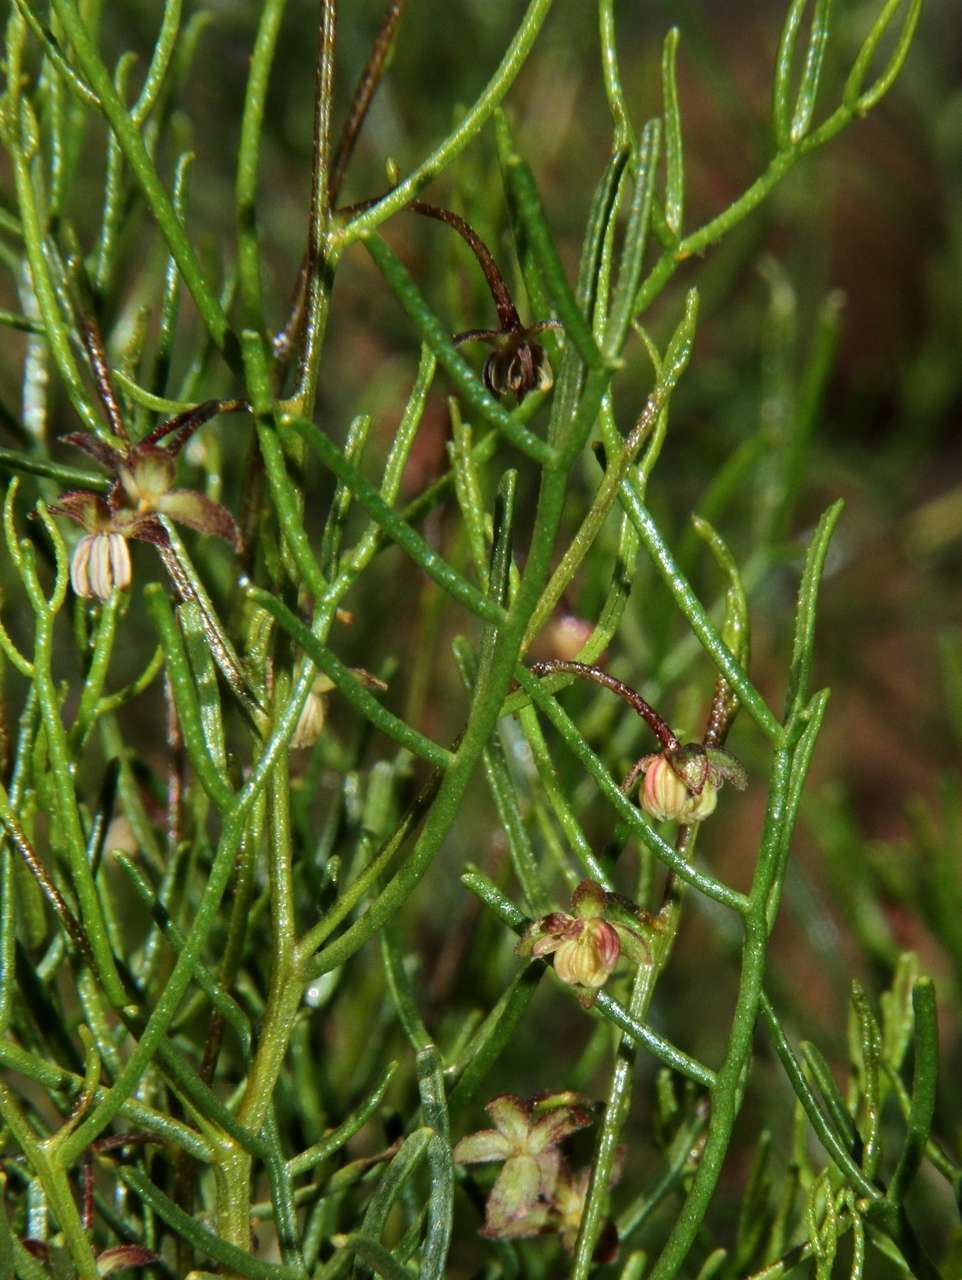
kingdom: Plantae
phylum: Tracheophyta
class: Magnoliopsida
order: Sapindales
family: Sapindaceae
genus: Dodonaea
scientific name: Dodonaea stenozyga
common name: Desert hopbush
